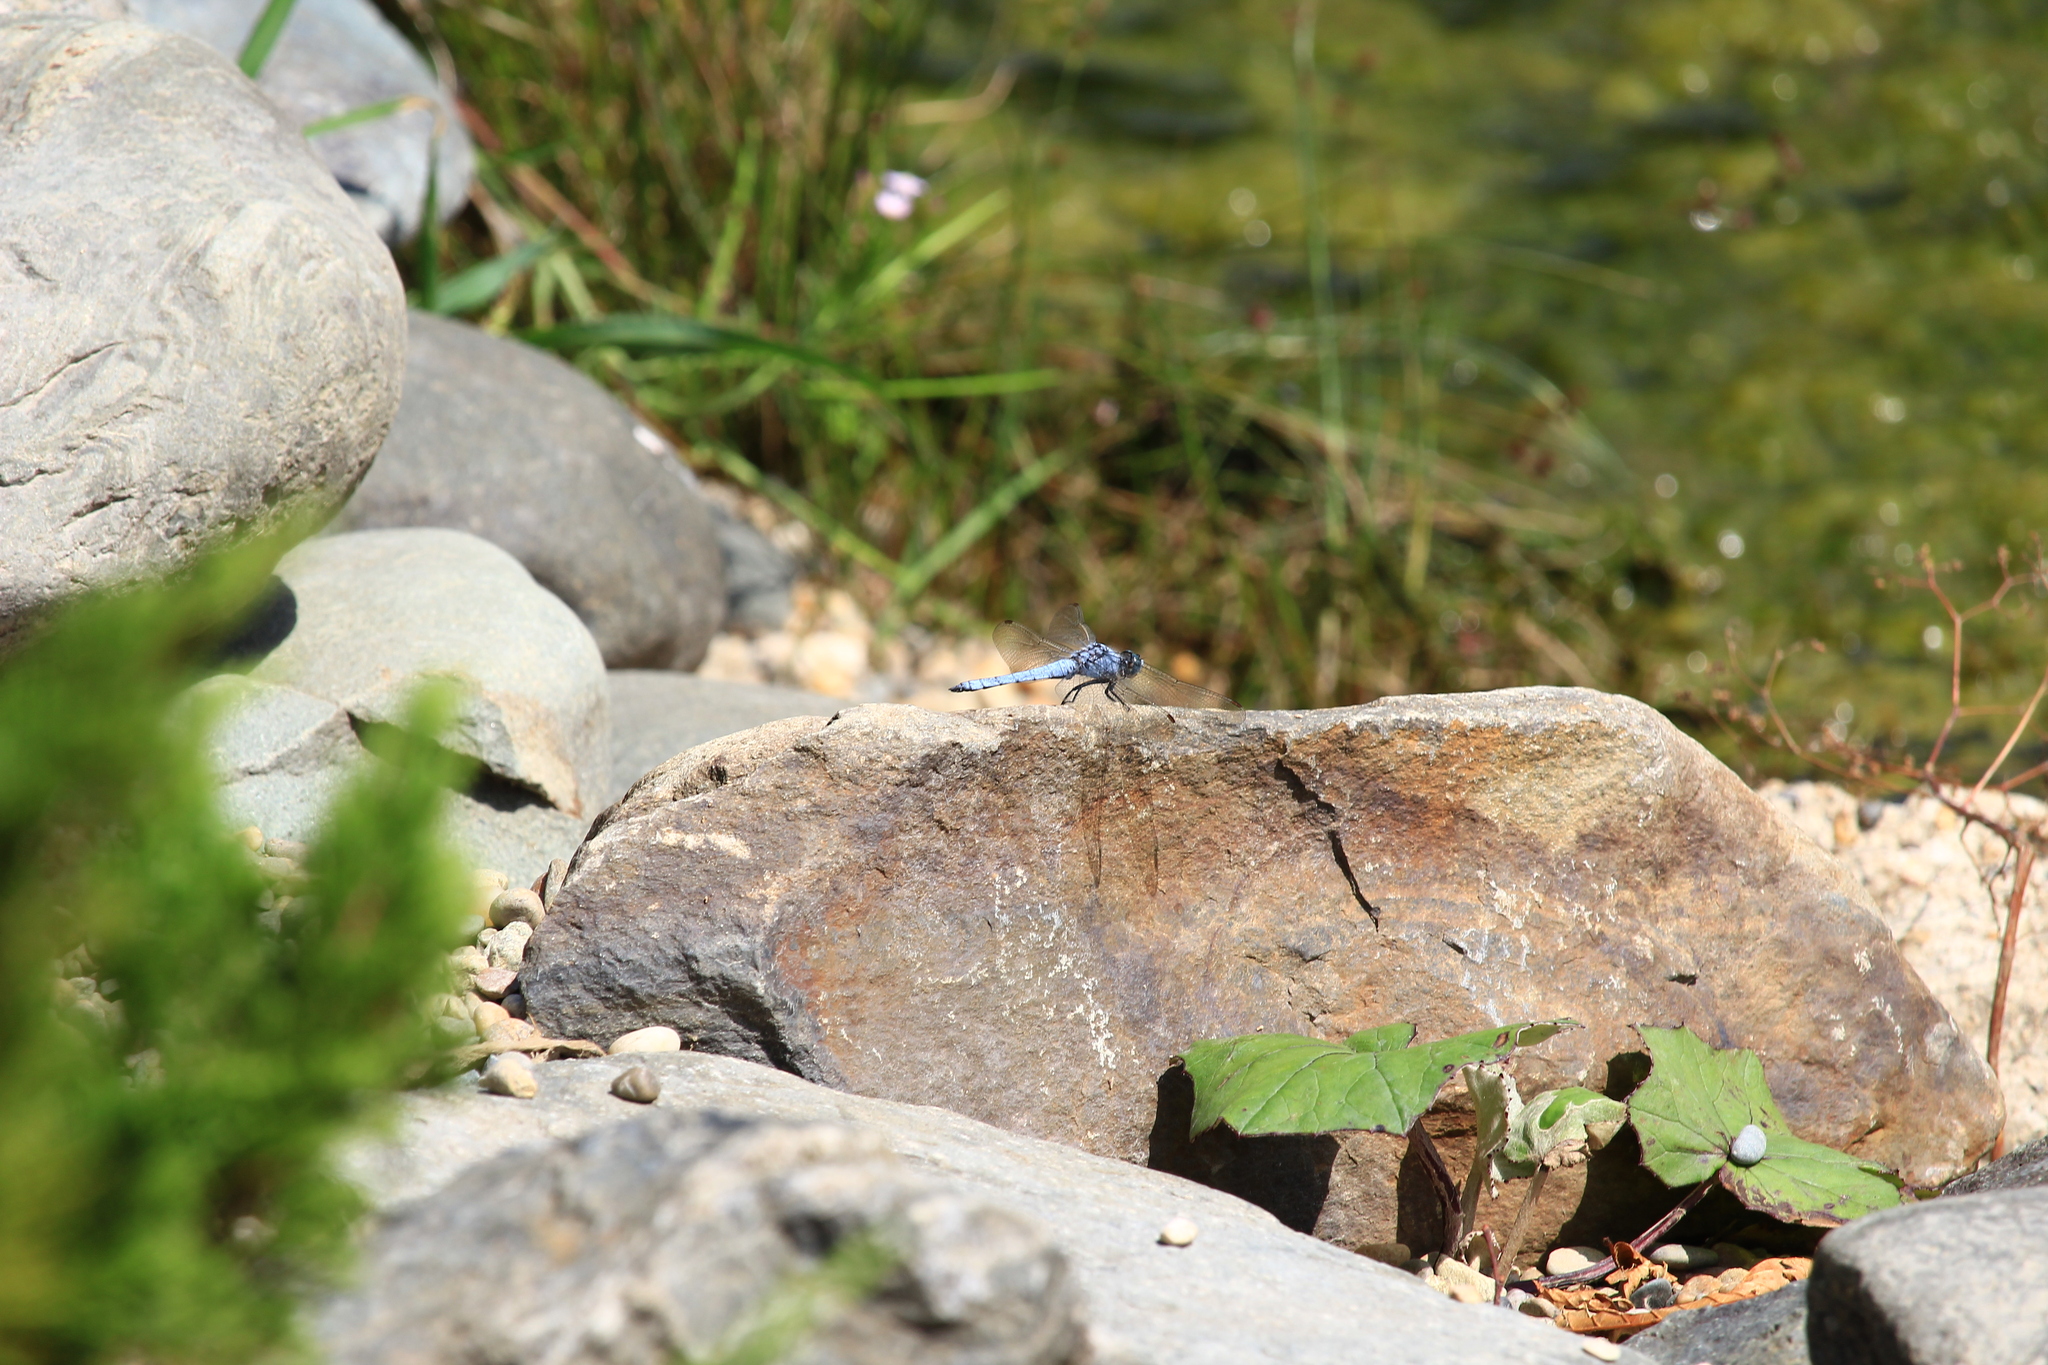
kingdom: Animalia
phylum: Arthropoda
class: Insecta
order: Odonata
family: Libellulidae
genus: Orthetrum
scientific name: Orthetrum brunneum
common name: Southern skimmer
